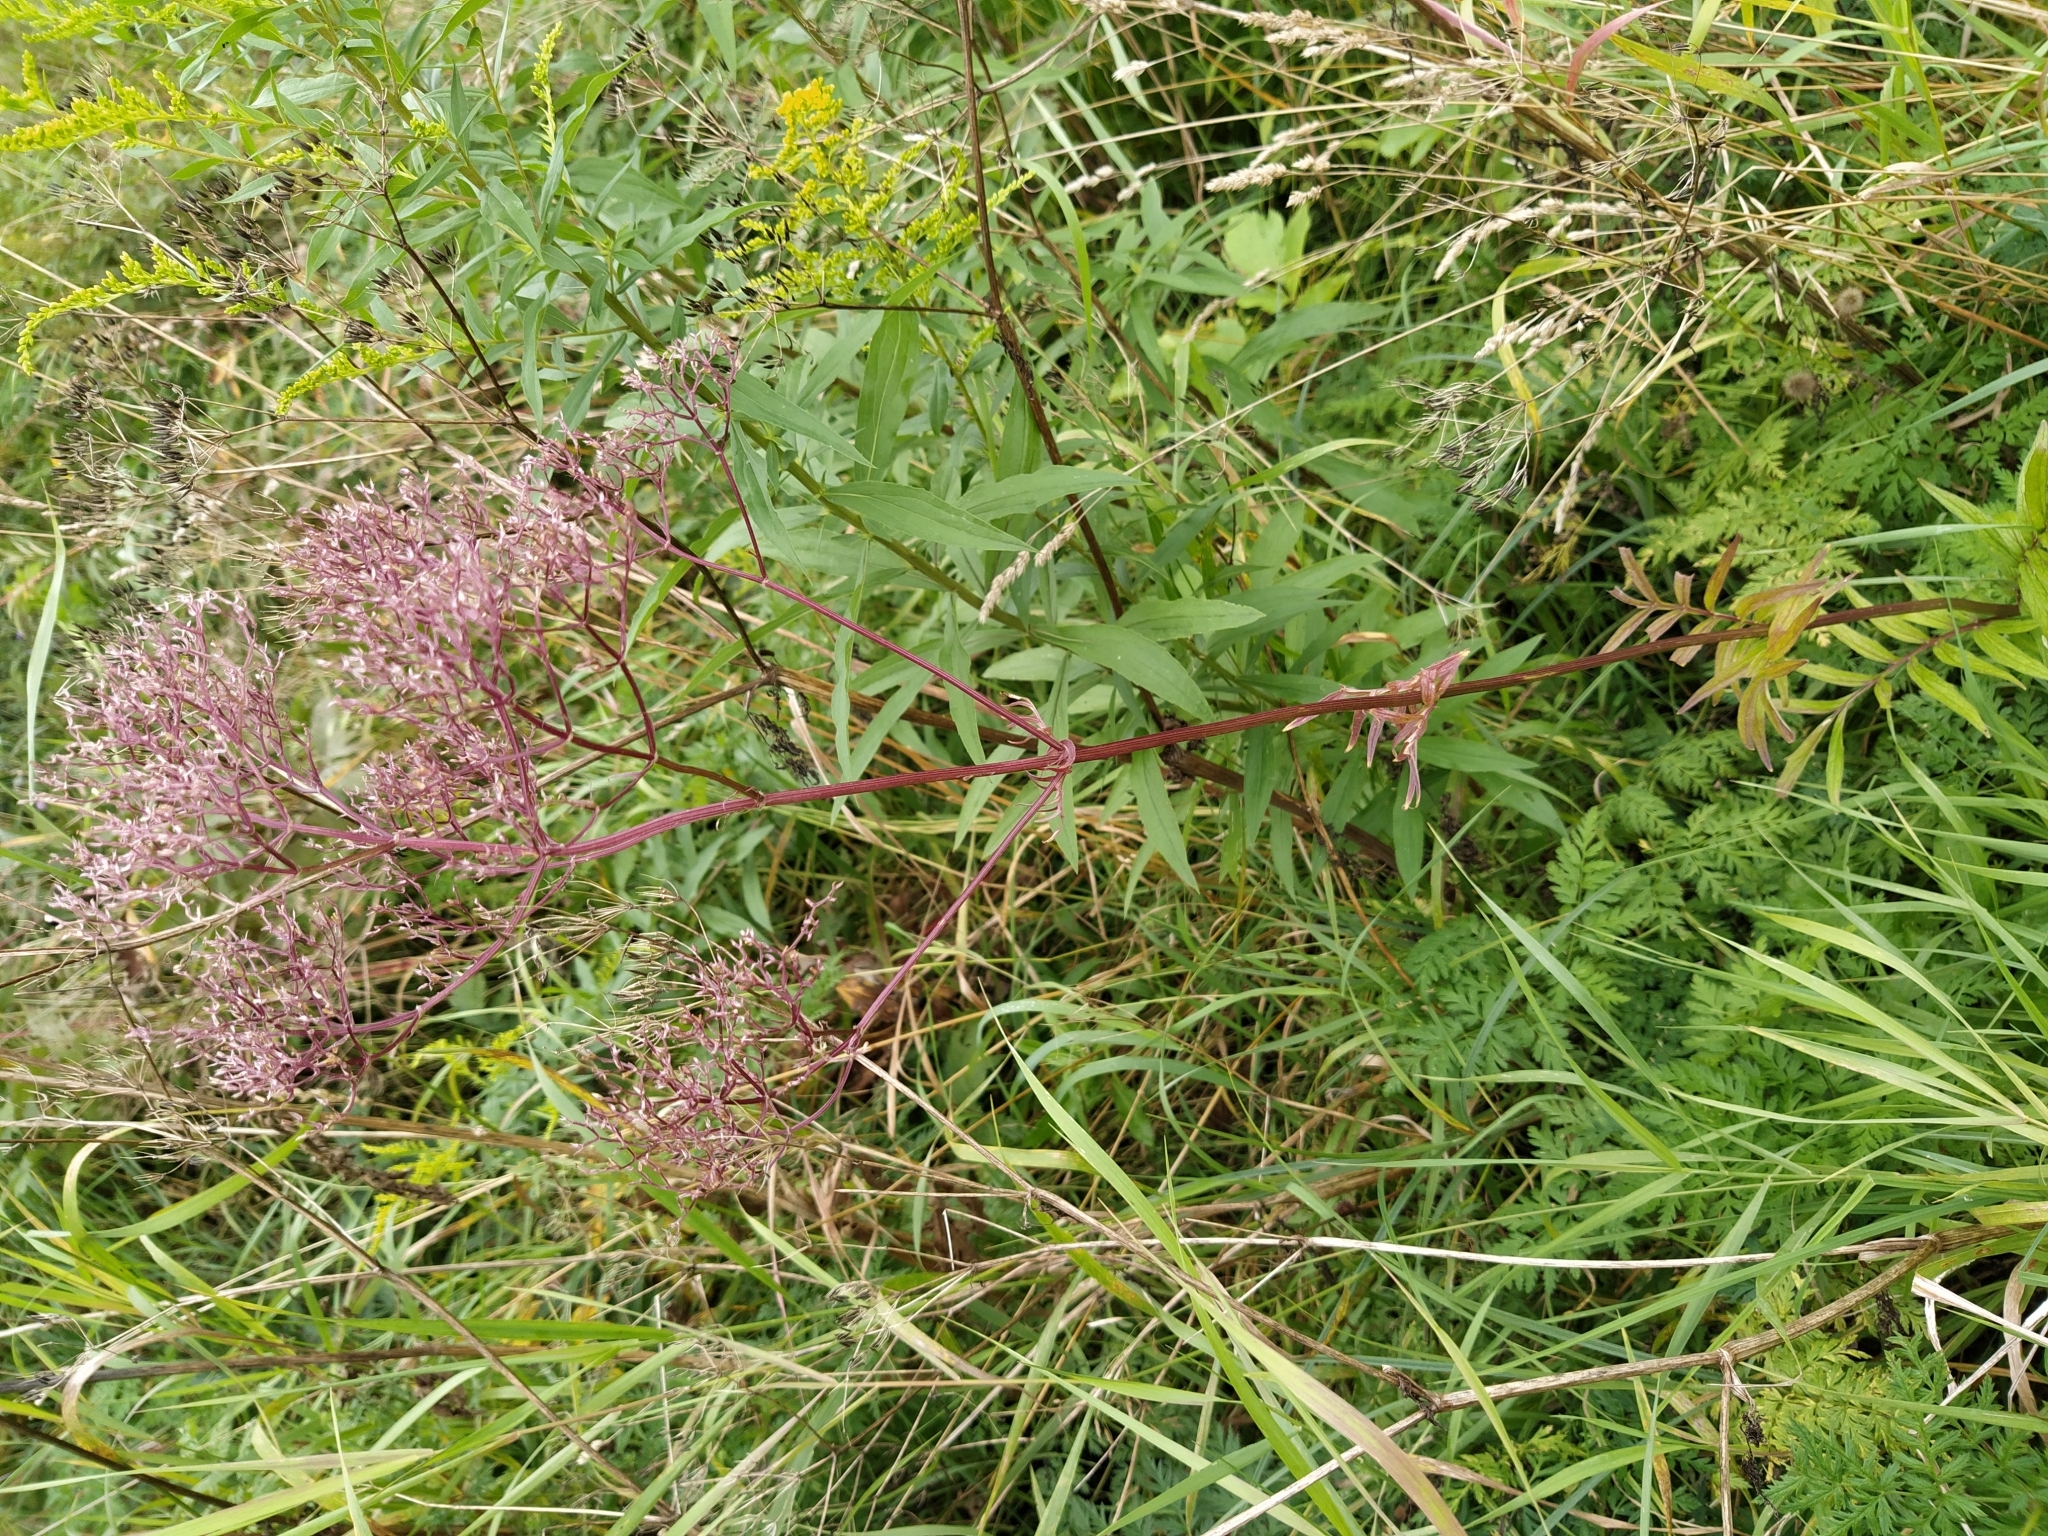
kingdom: Plantae
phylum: Tracheophyta
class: Magnoliopsida
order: Dipsacales
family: Caprifoliaceae
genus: Valeriana
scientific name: Valeriana officinalis
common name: Common valerian
